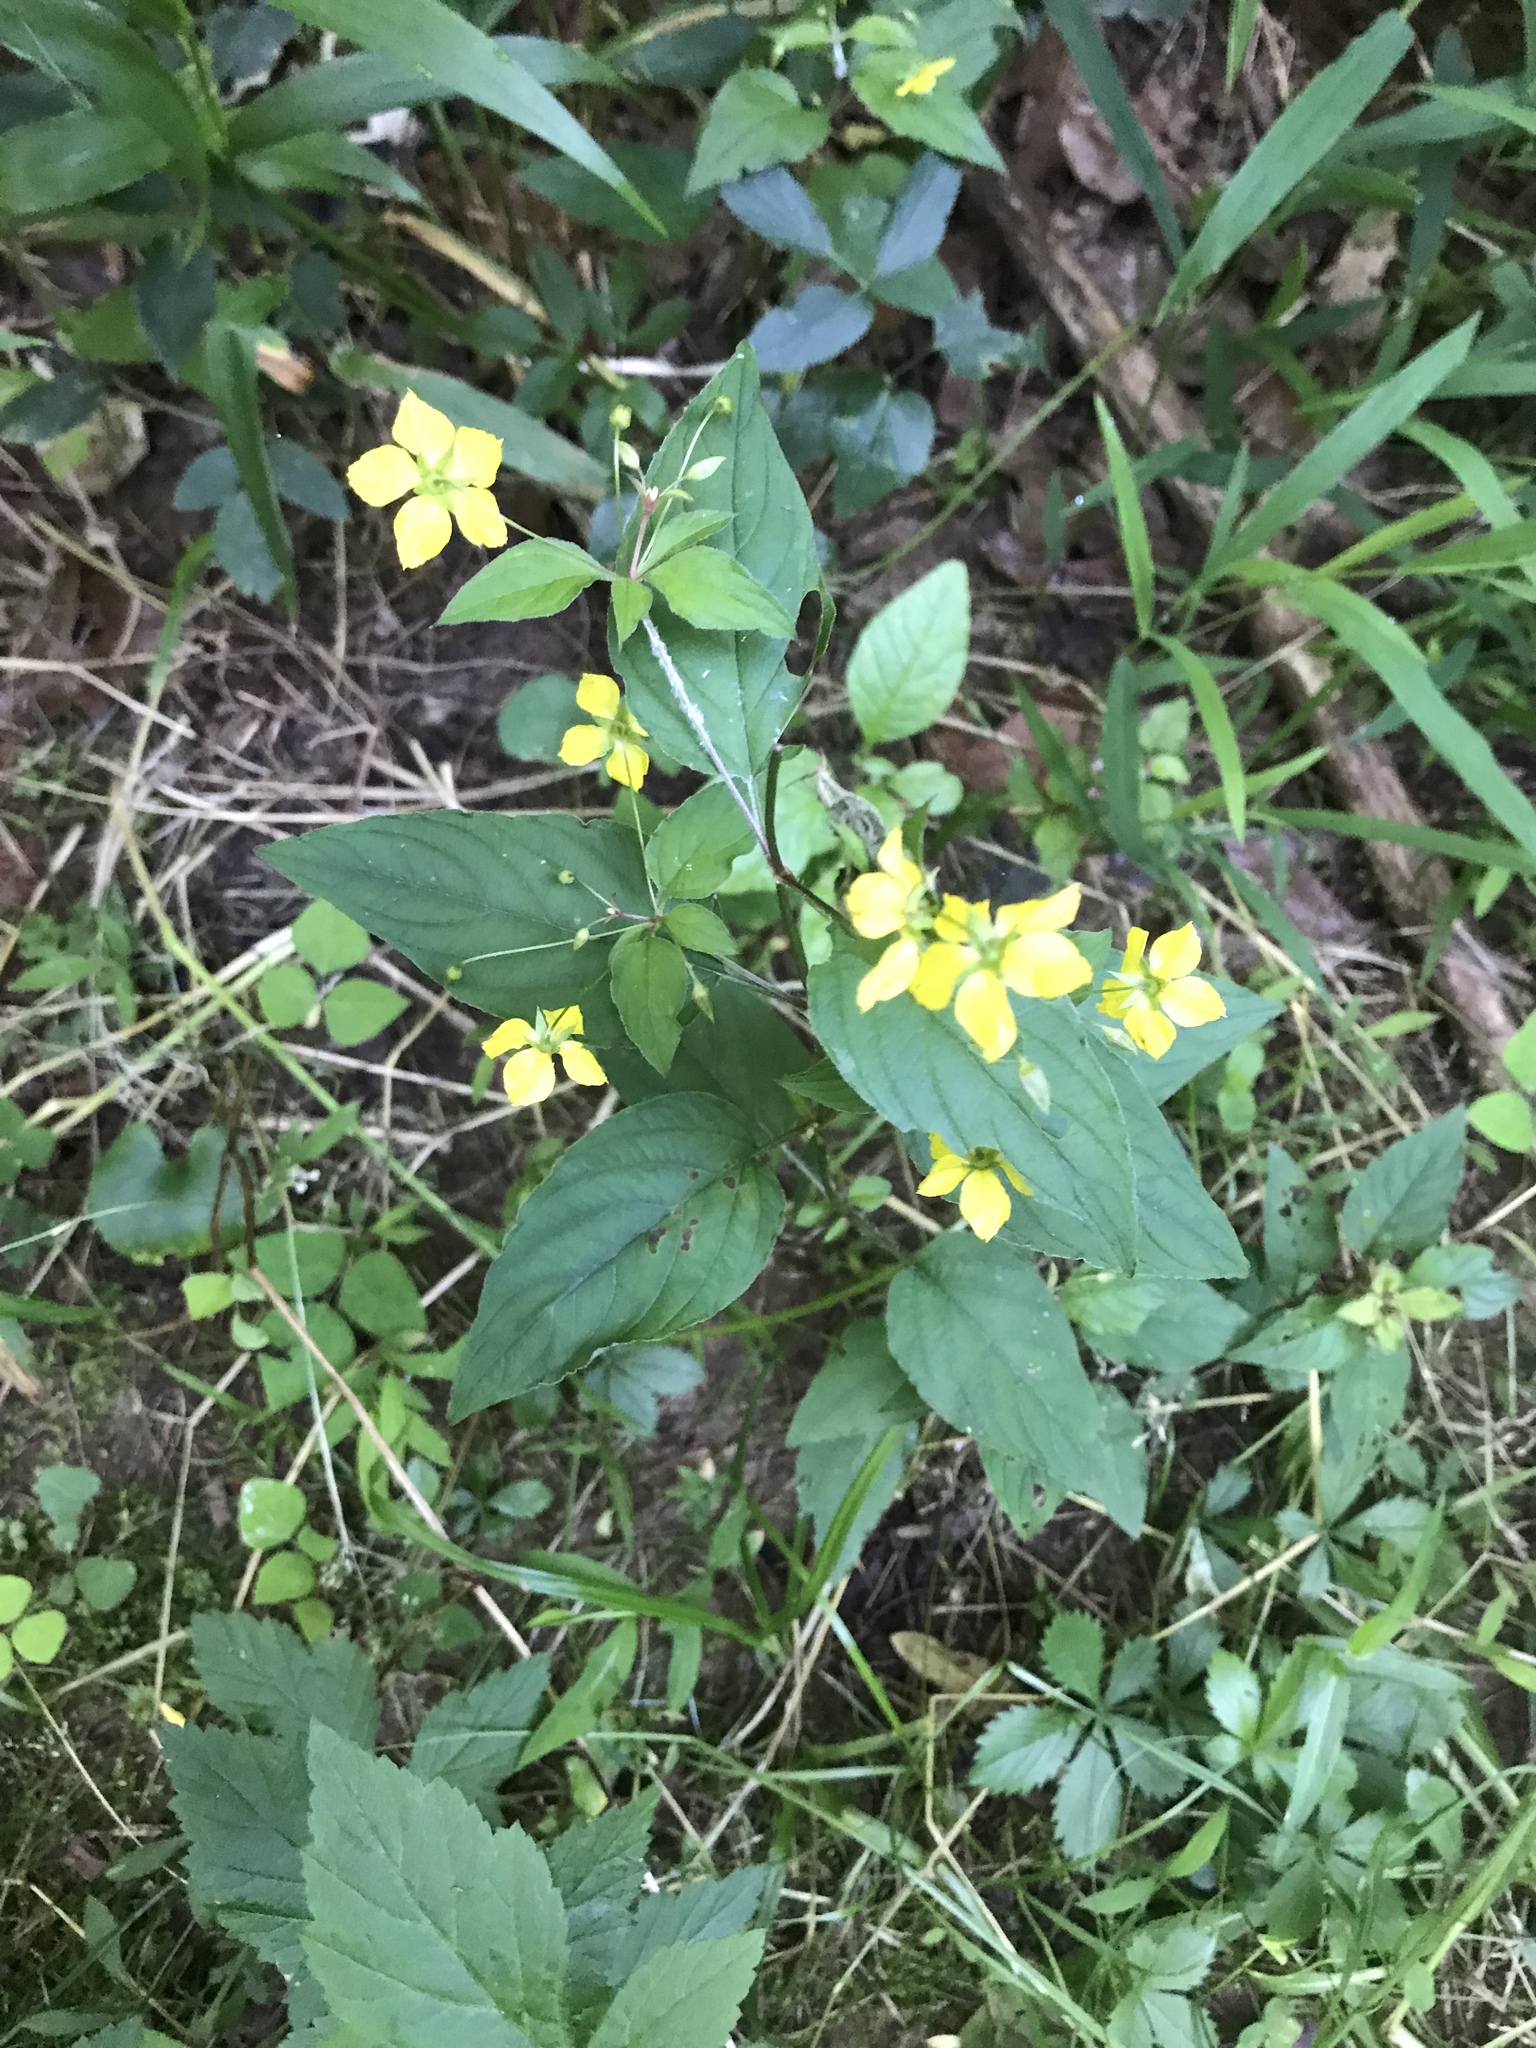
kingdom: Plantae
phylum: Tracheophyta
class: Magnoliopsida
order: Ericales
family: Primulaceae
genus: Lysimachia
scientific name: Lysimachia ciliata
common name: Fringed loosestrife
